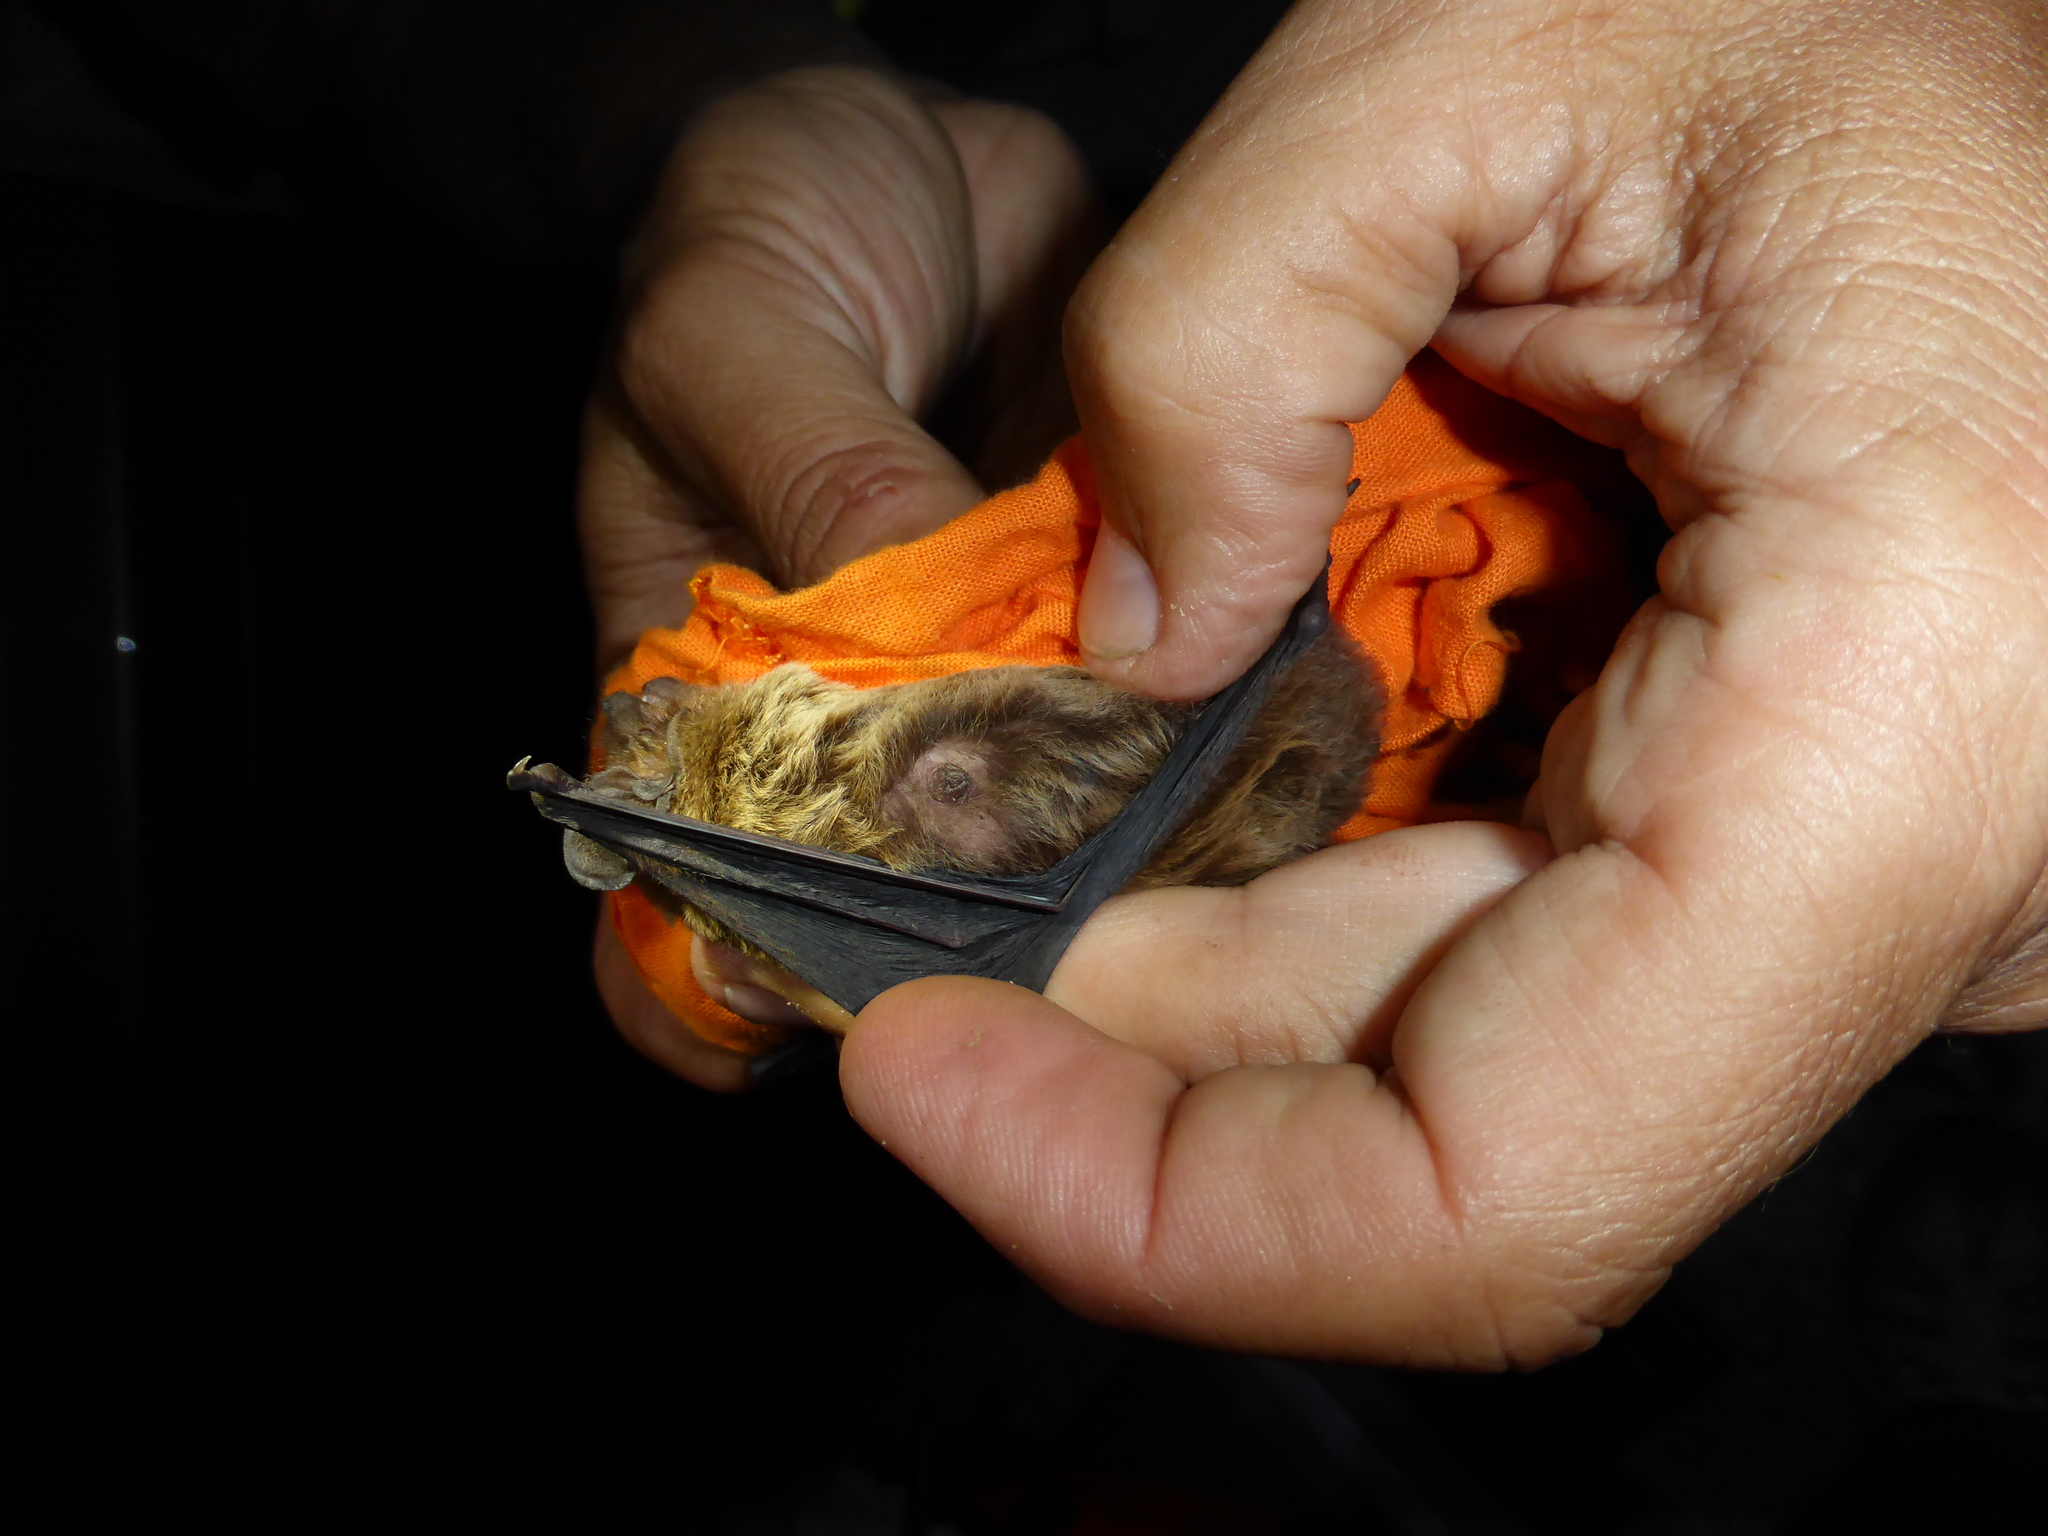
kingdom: Animalia
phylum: Chordata
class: Mammalia
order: Chiroptera
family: Vespertilionidae
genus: Nyctalus
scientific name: Nyctalus leisleri
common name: Lesser noctule
